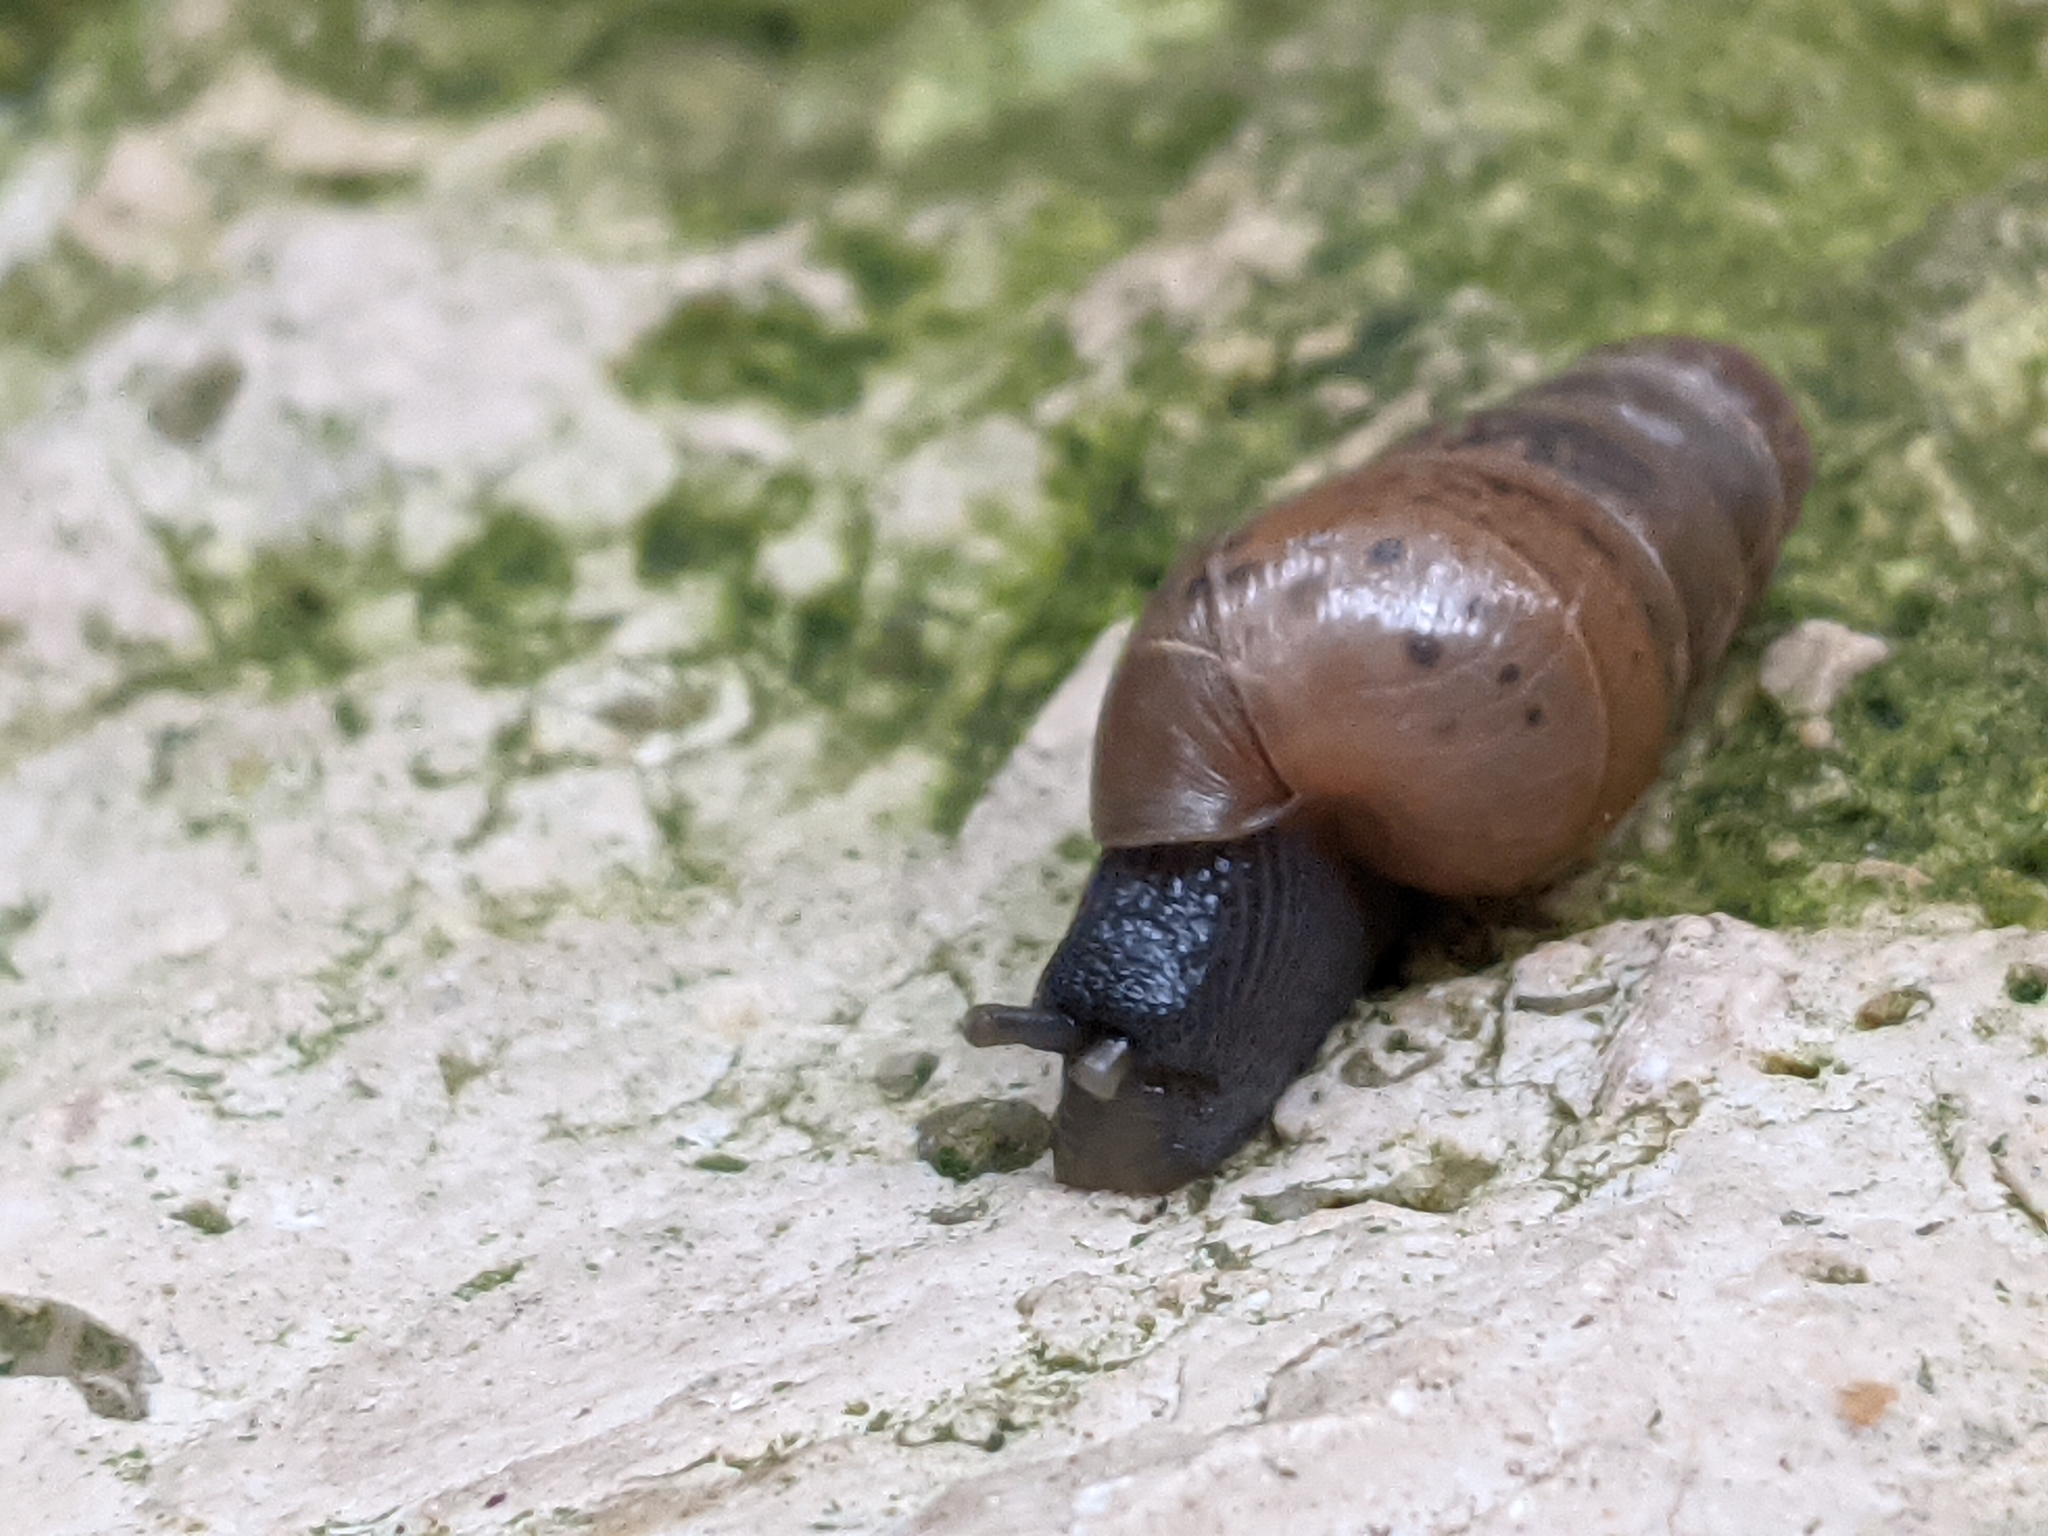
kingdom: Animalia
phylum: Mollusca
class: Gastropoda
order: Stylommatophora
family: Achatinidae
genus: Rumina
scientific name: Rumina decollata
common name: Decollate snail
